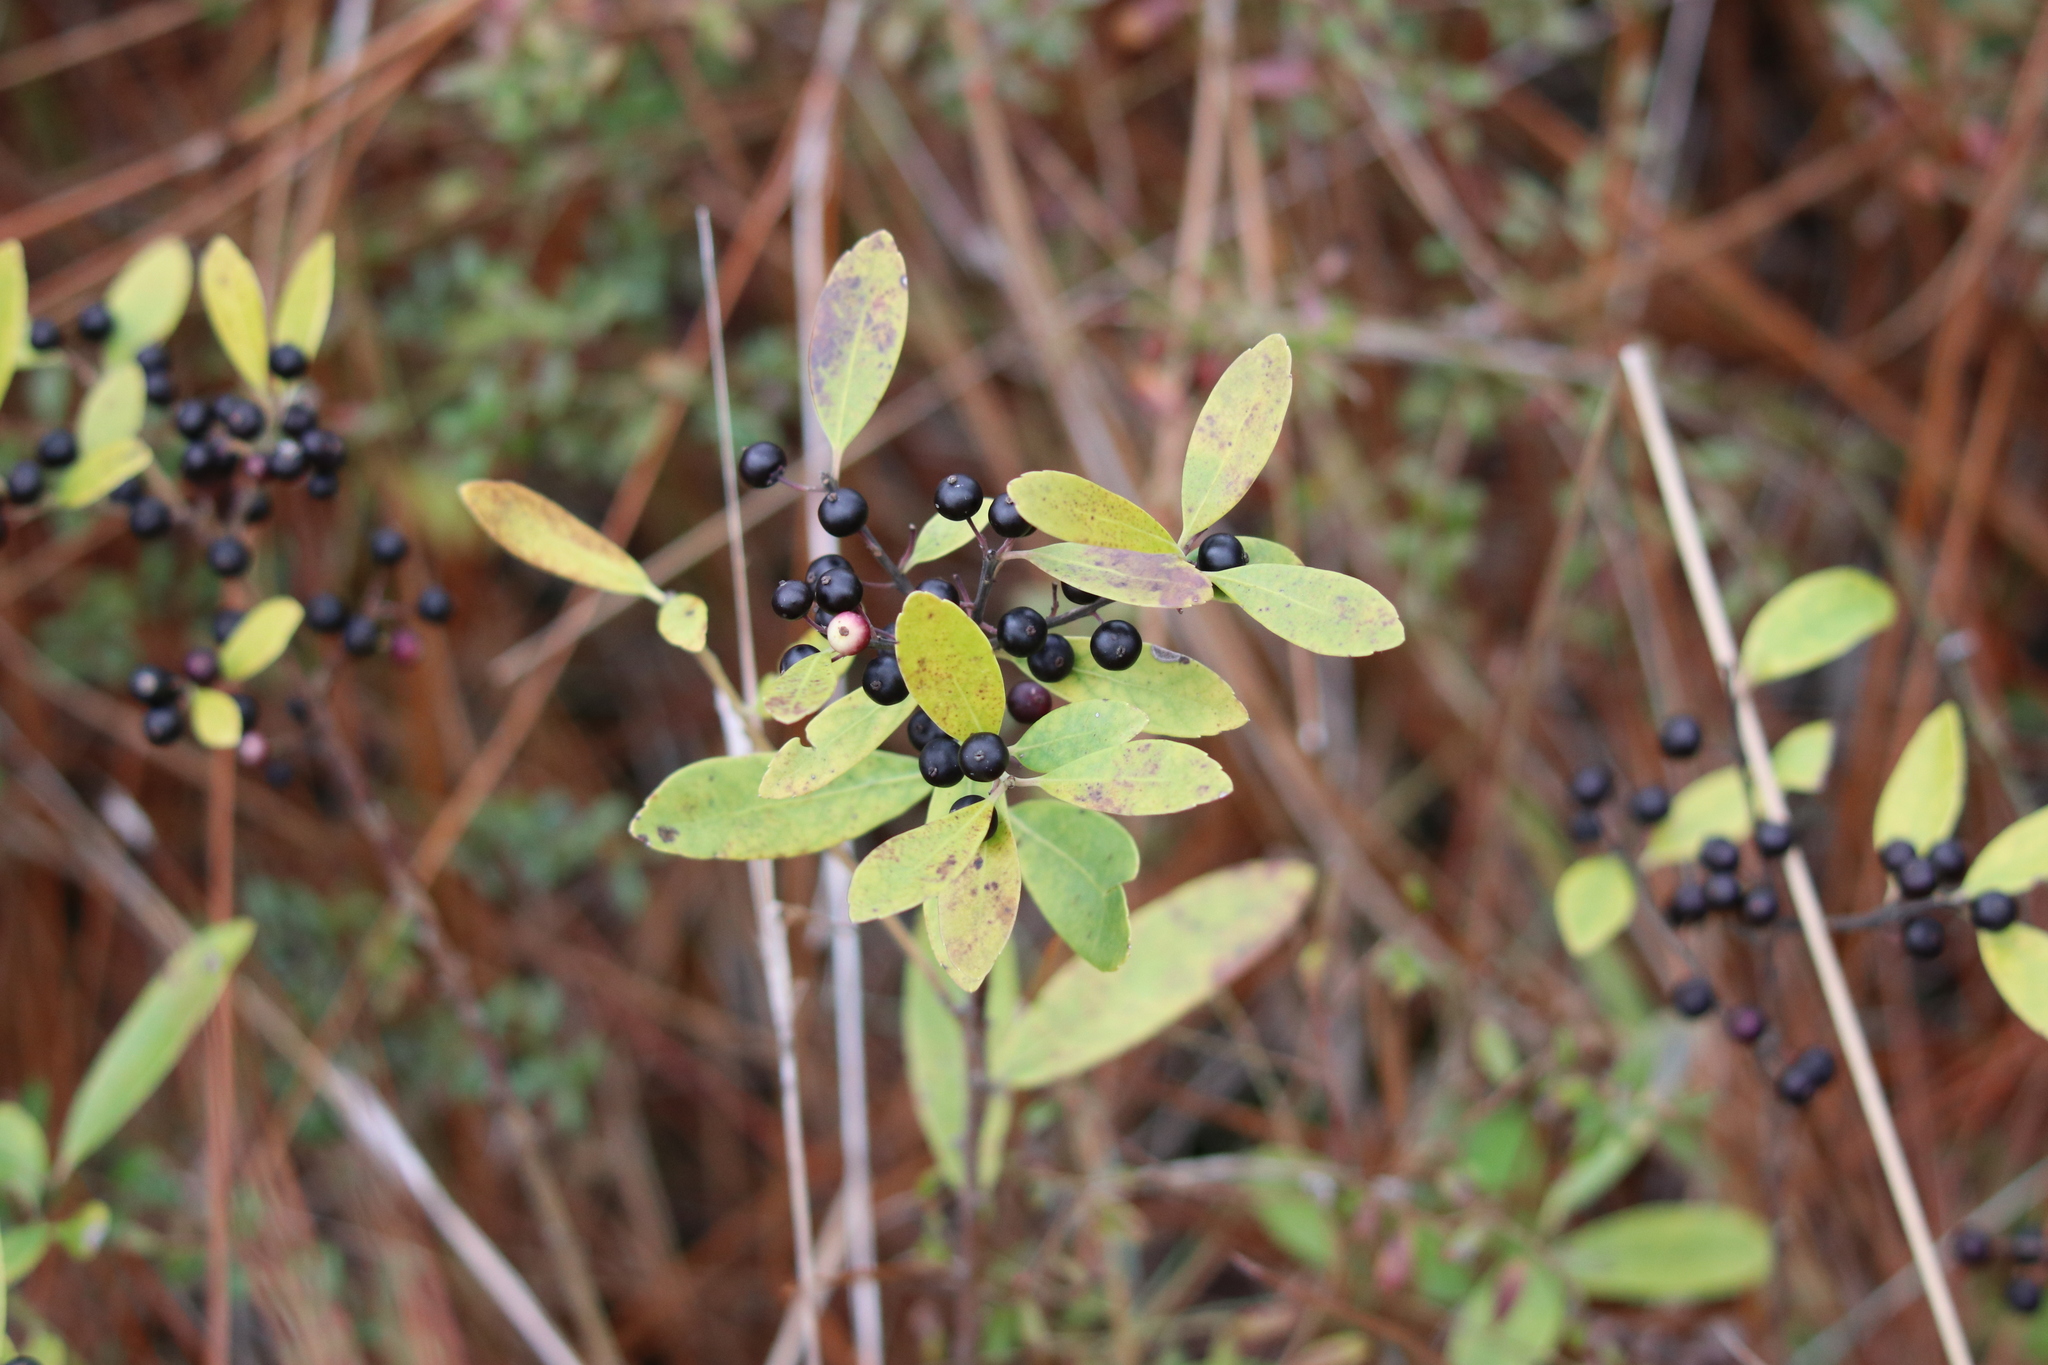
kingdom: Plantae
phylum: Tracheophyta
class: Magnoliopsida
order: Aquifoliales
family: Aquifoliaceae
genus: Ilex
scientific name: Ilex glabra
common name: Bitter gallberry
